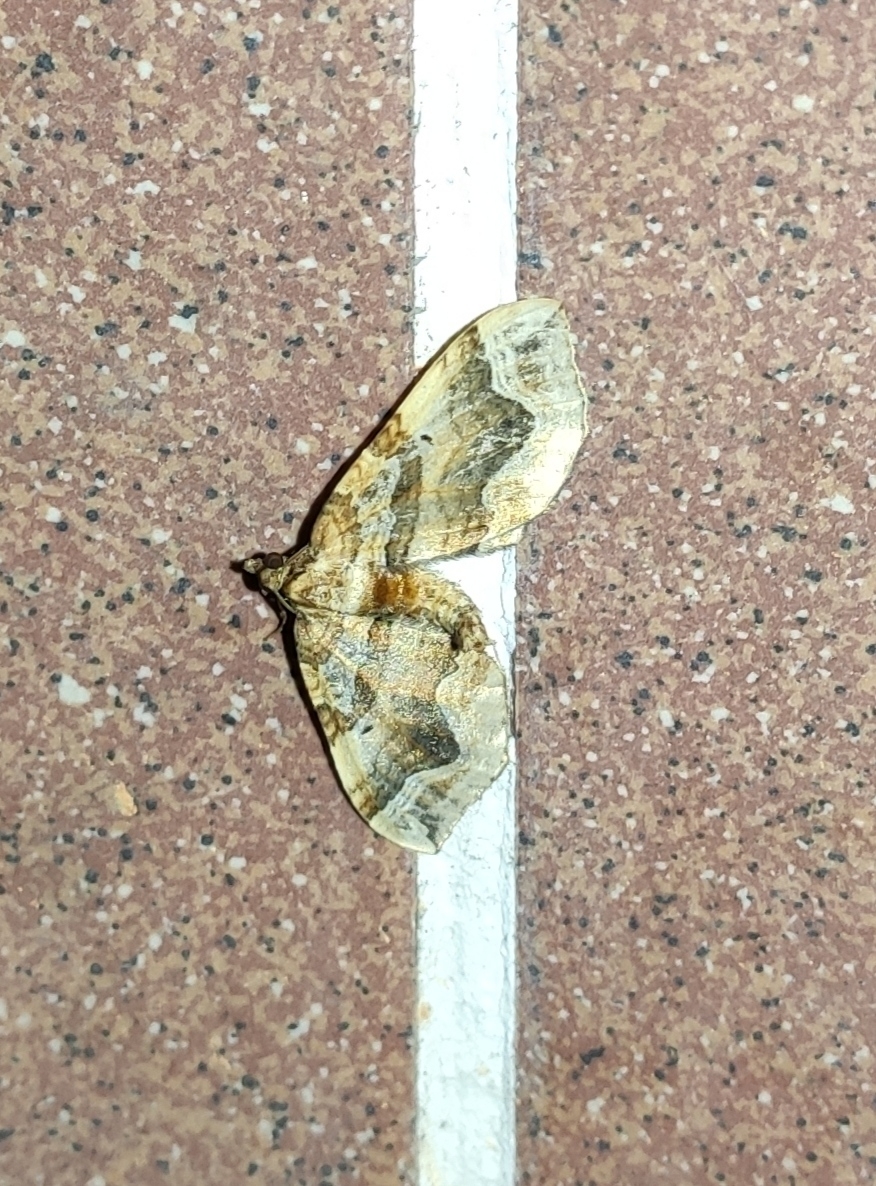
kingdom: Animalia
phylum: Arthropoda
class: Insecta
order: Lepidoptera
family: Geometridae
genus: Pelurga
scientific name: Pelurga comitata
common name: Dark spinach
